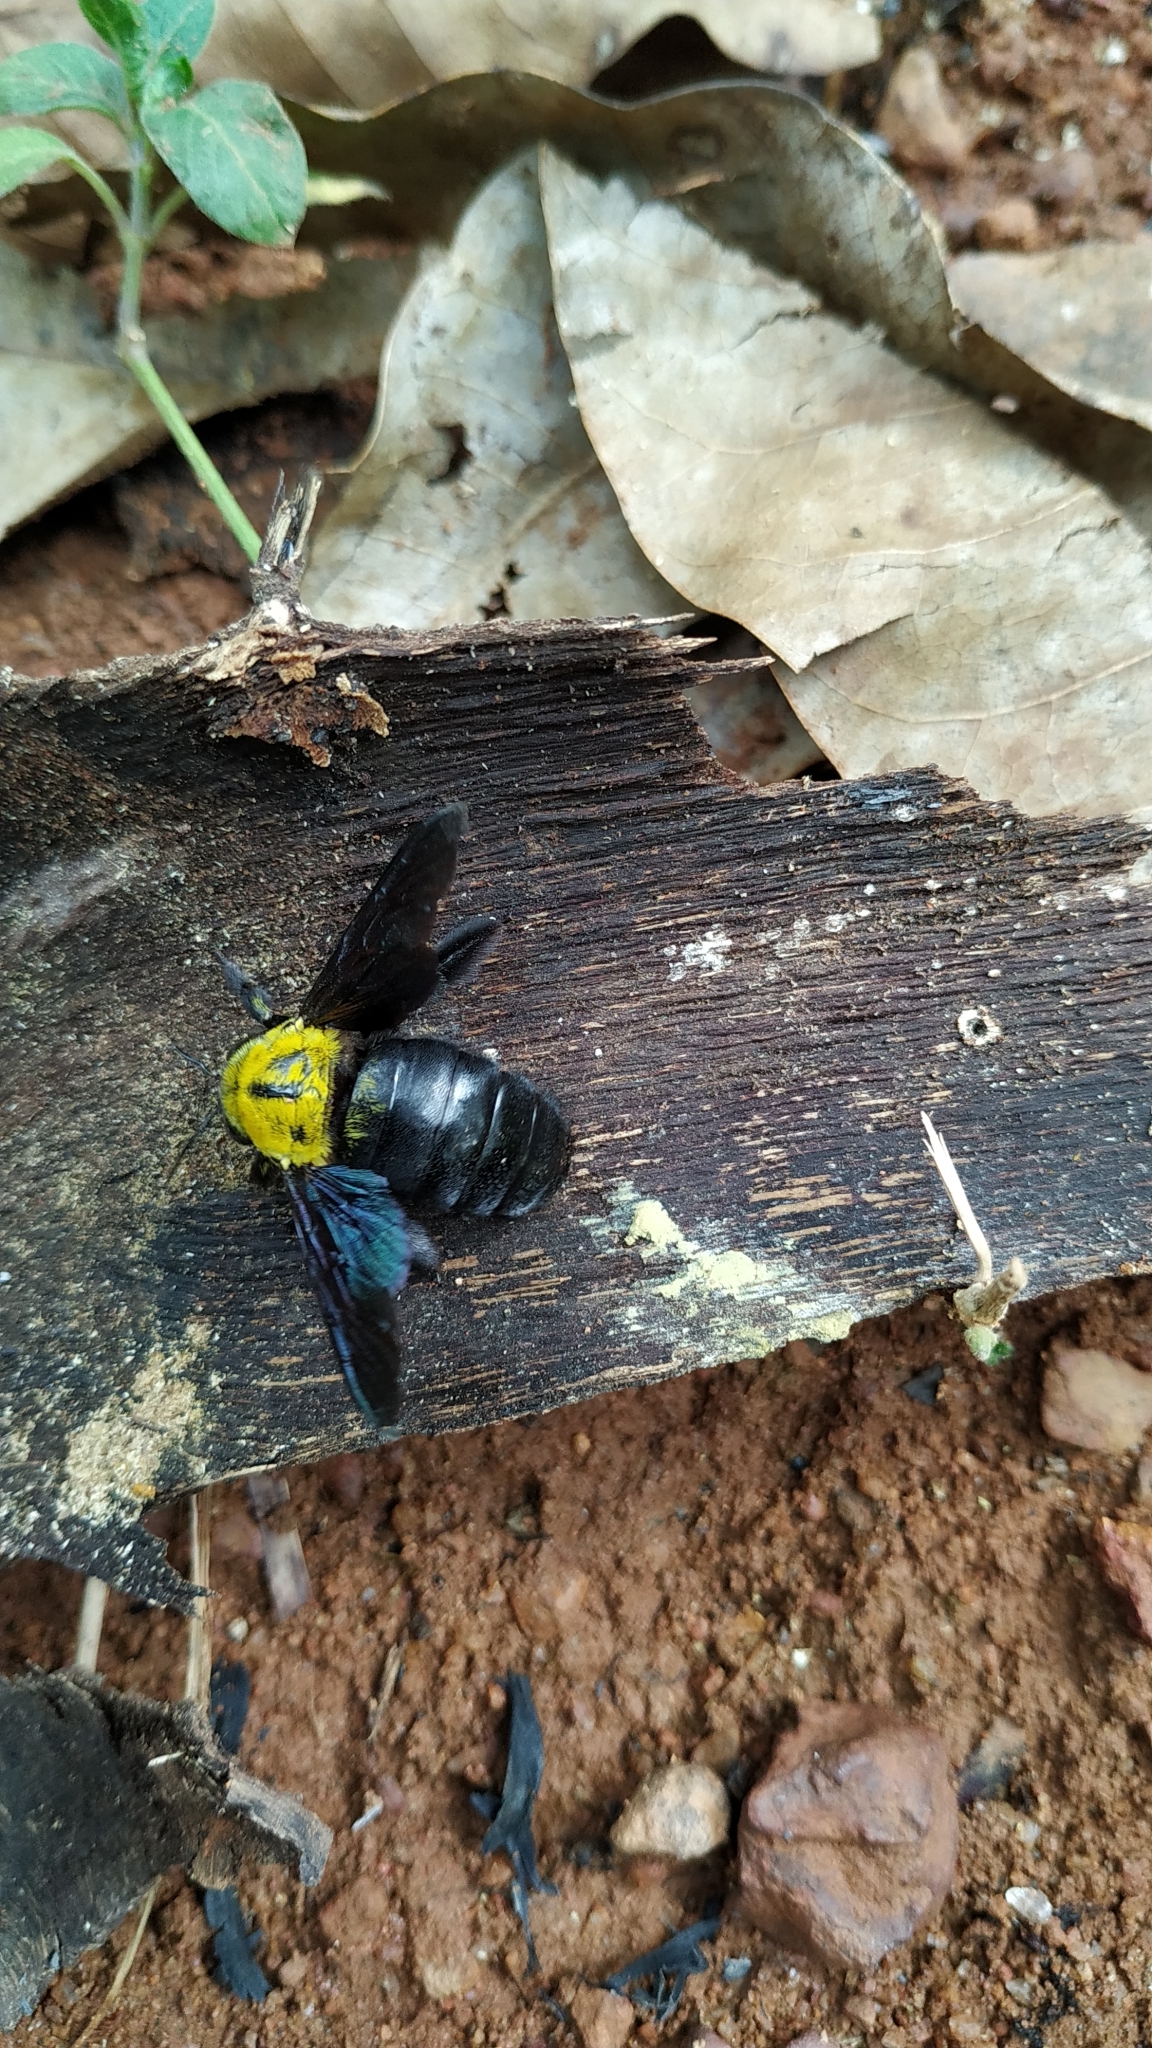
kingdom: Animalia
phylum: Arthropoda
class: Insecta
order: Hymenoptera
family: Apidae
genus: Xylocopa
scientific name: Xylocopa ruficornis
